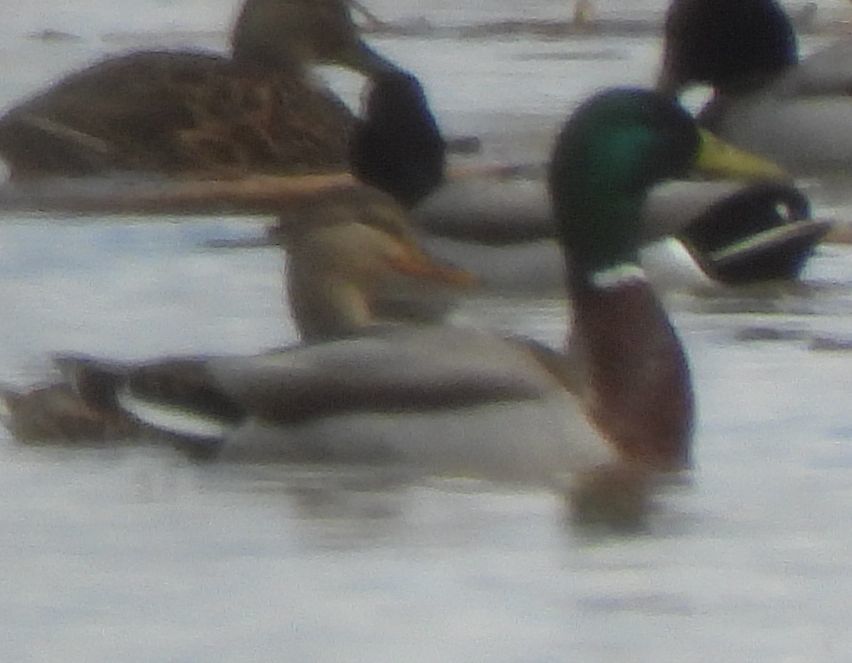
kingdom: Animalia
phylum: Chordata
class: Aves
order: Anseriformes
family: Anatidae
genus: Anas
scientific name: Anas platyrhynchos
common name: Mallard
